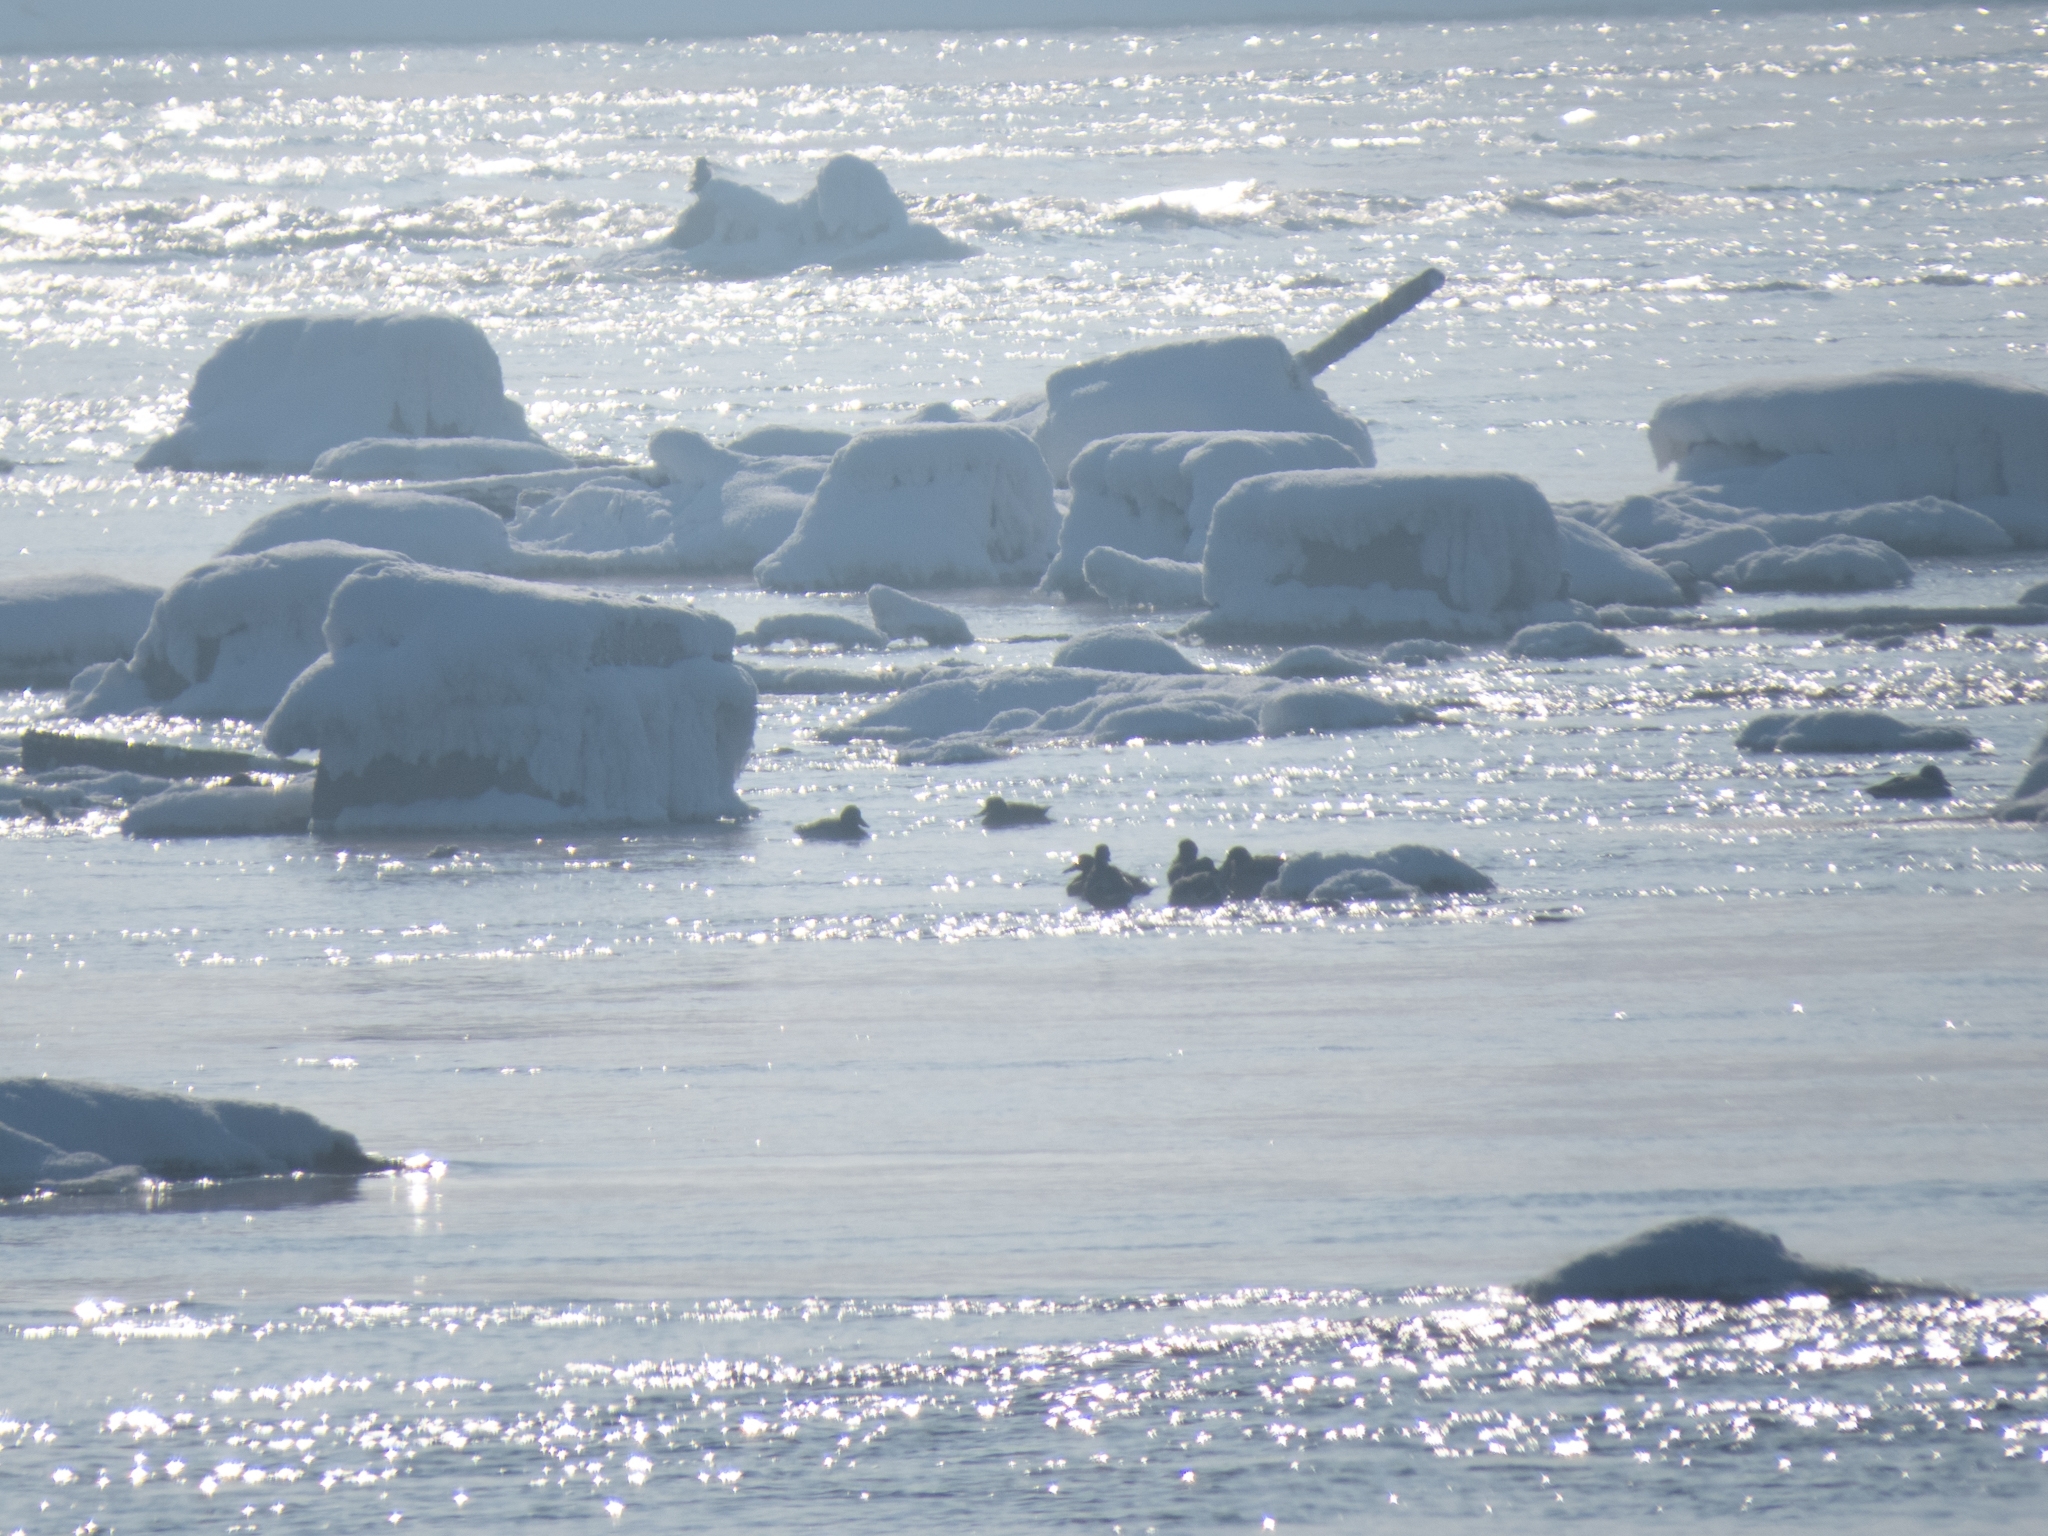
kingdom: Animalia
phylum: Chordata
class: Aves
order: Anseriformes
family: Anatidae
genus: Anas
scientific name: Anas platyrhynchos
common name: Mallard
